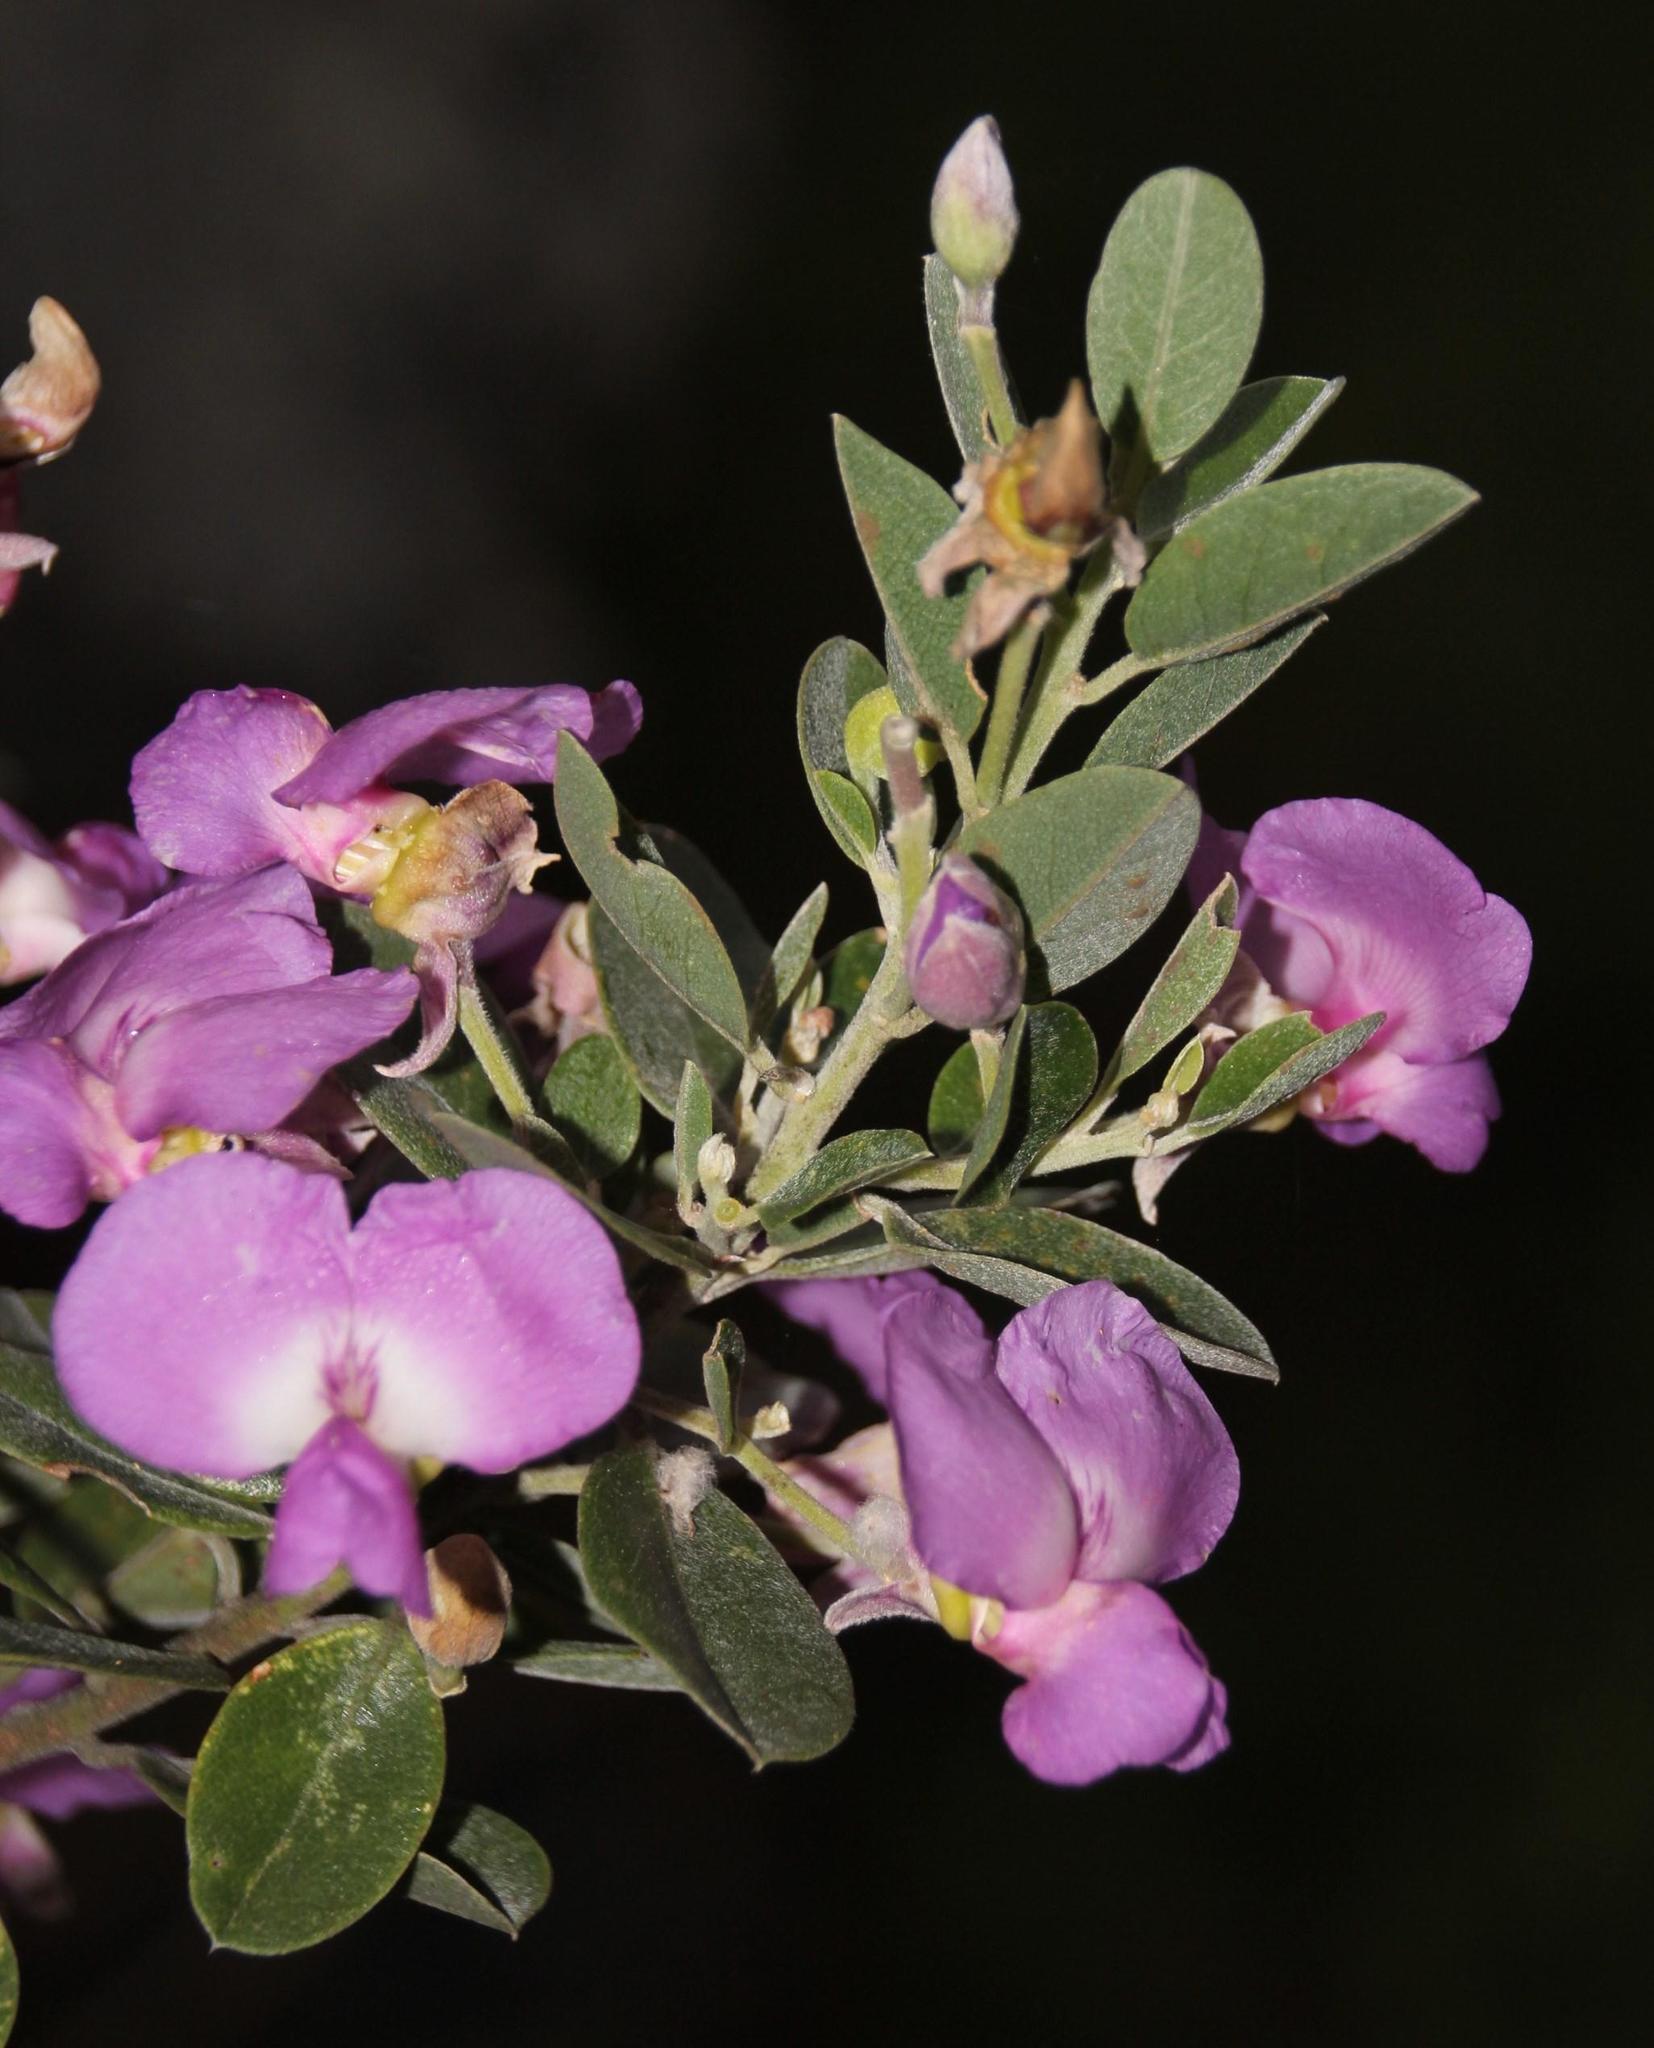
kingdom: Plantae
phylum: Tracheophyta
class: Magnoliopsida
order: Fabales
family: Fabaceae
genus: Podalyria
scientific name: Podalyria calyptrata
